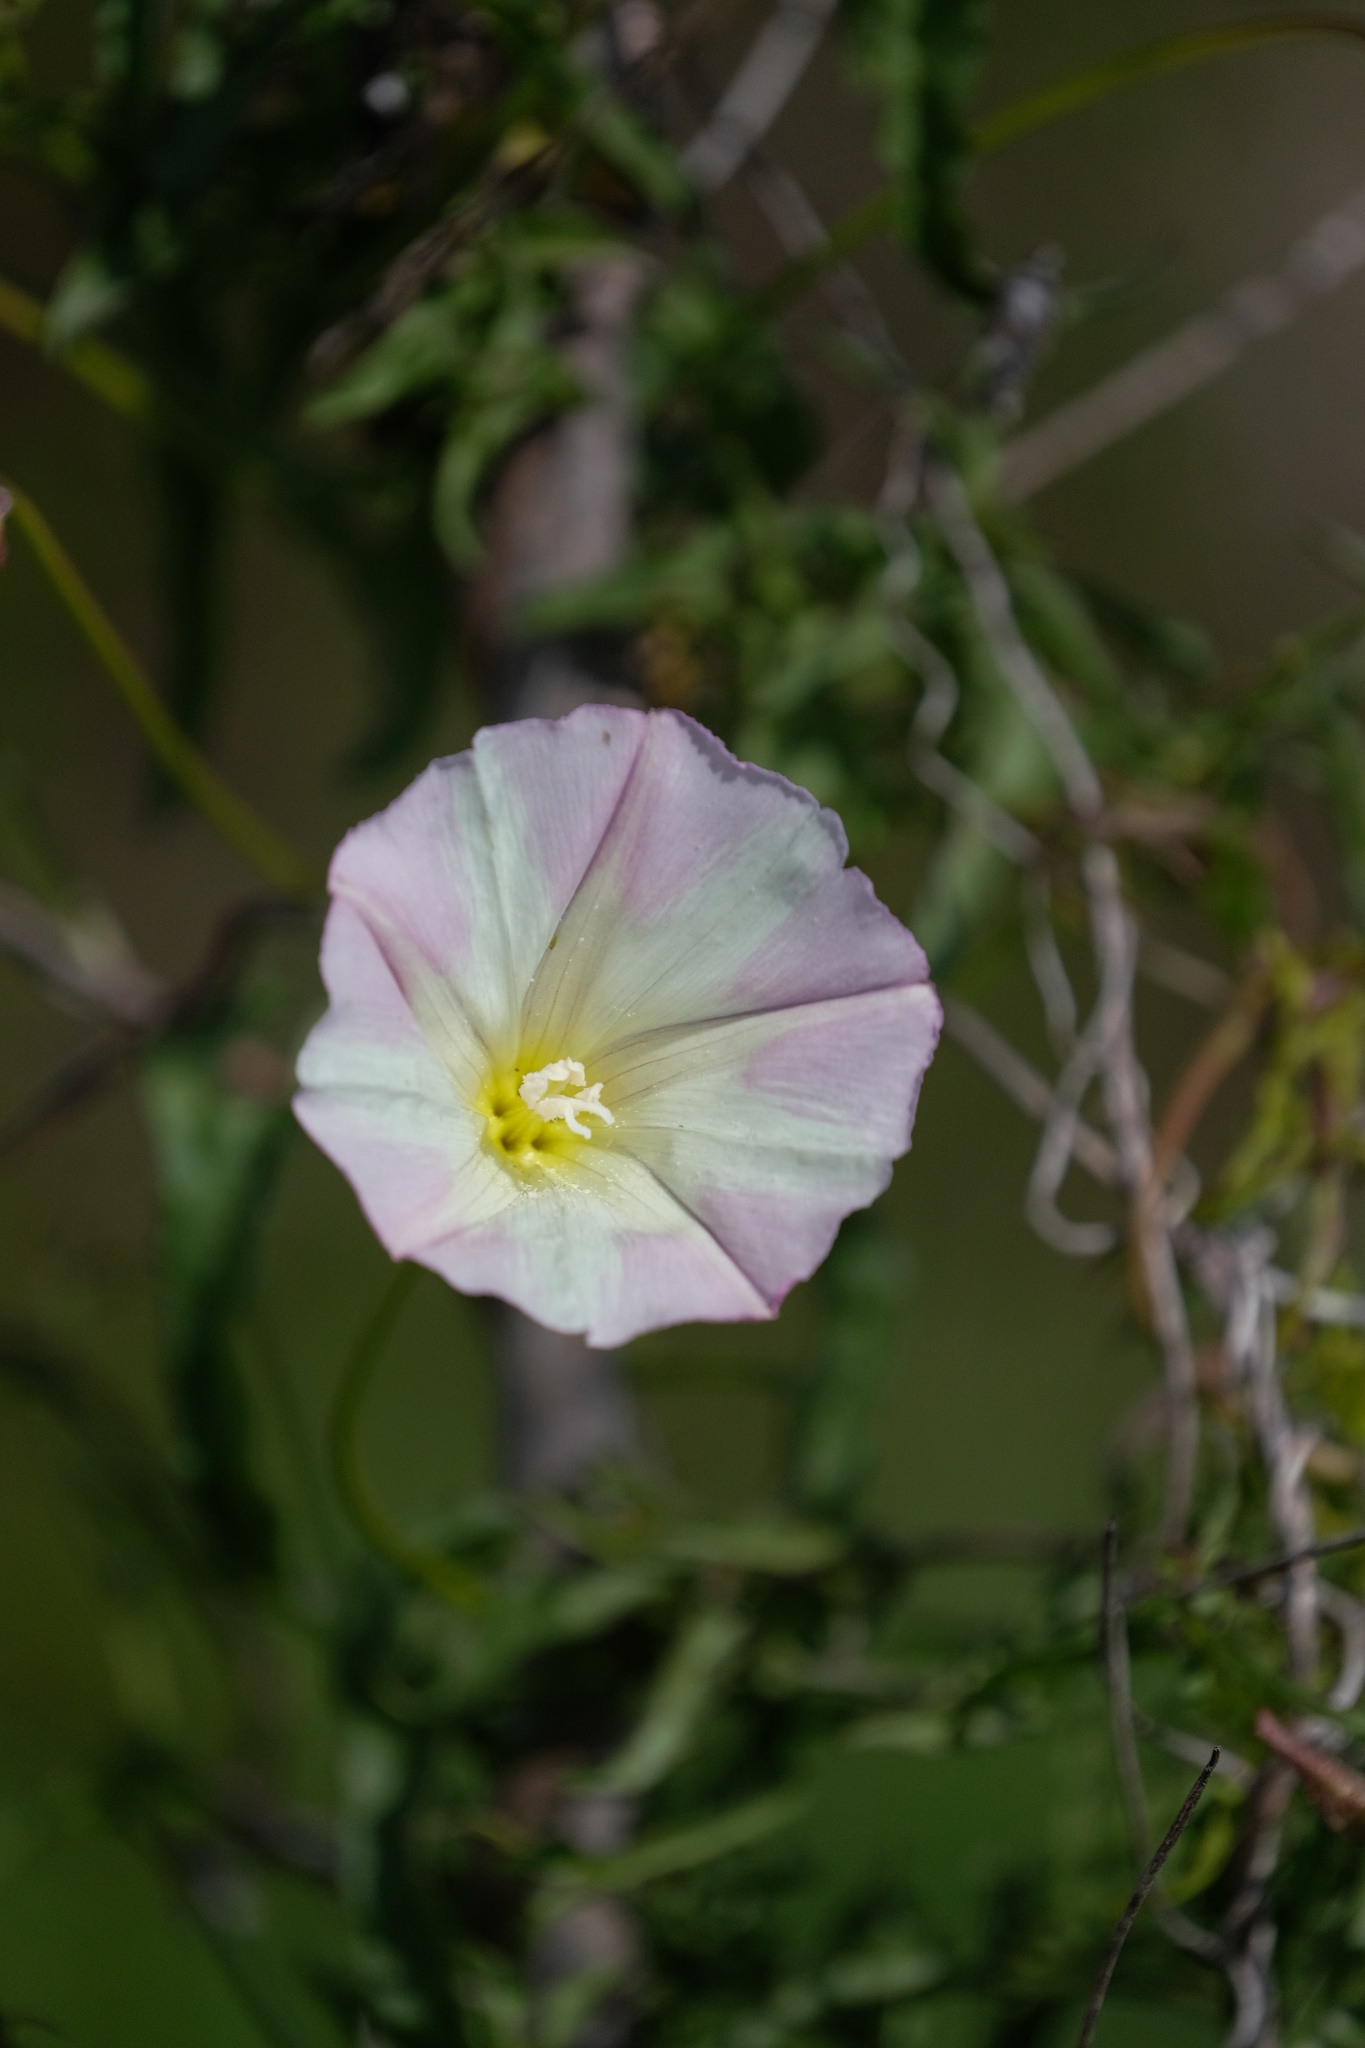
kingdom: Plantae
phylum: Tracheophyta
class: Magnoliopsida
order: Solanales
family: Convolvulaceae
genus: Calystegia
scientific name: Calystegia macrostegia
